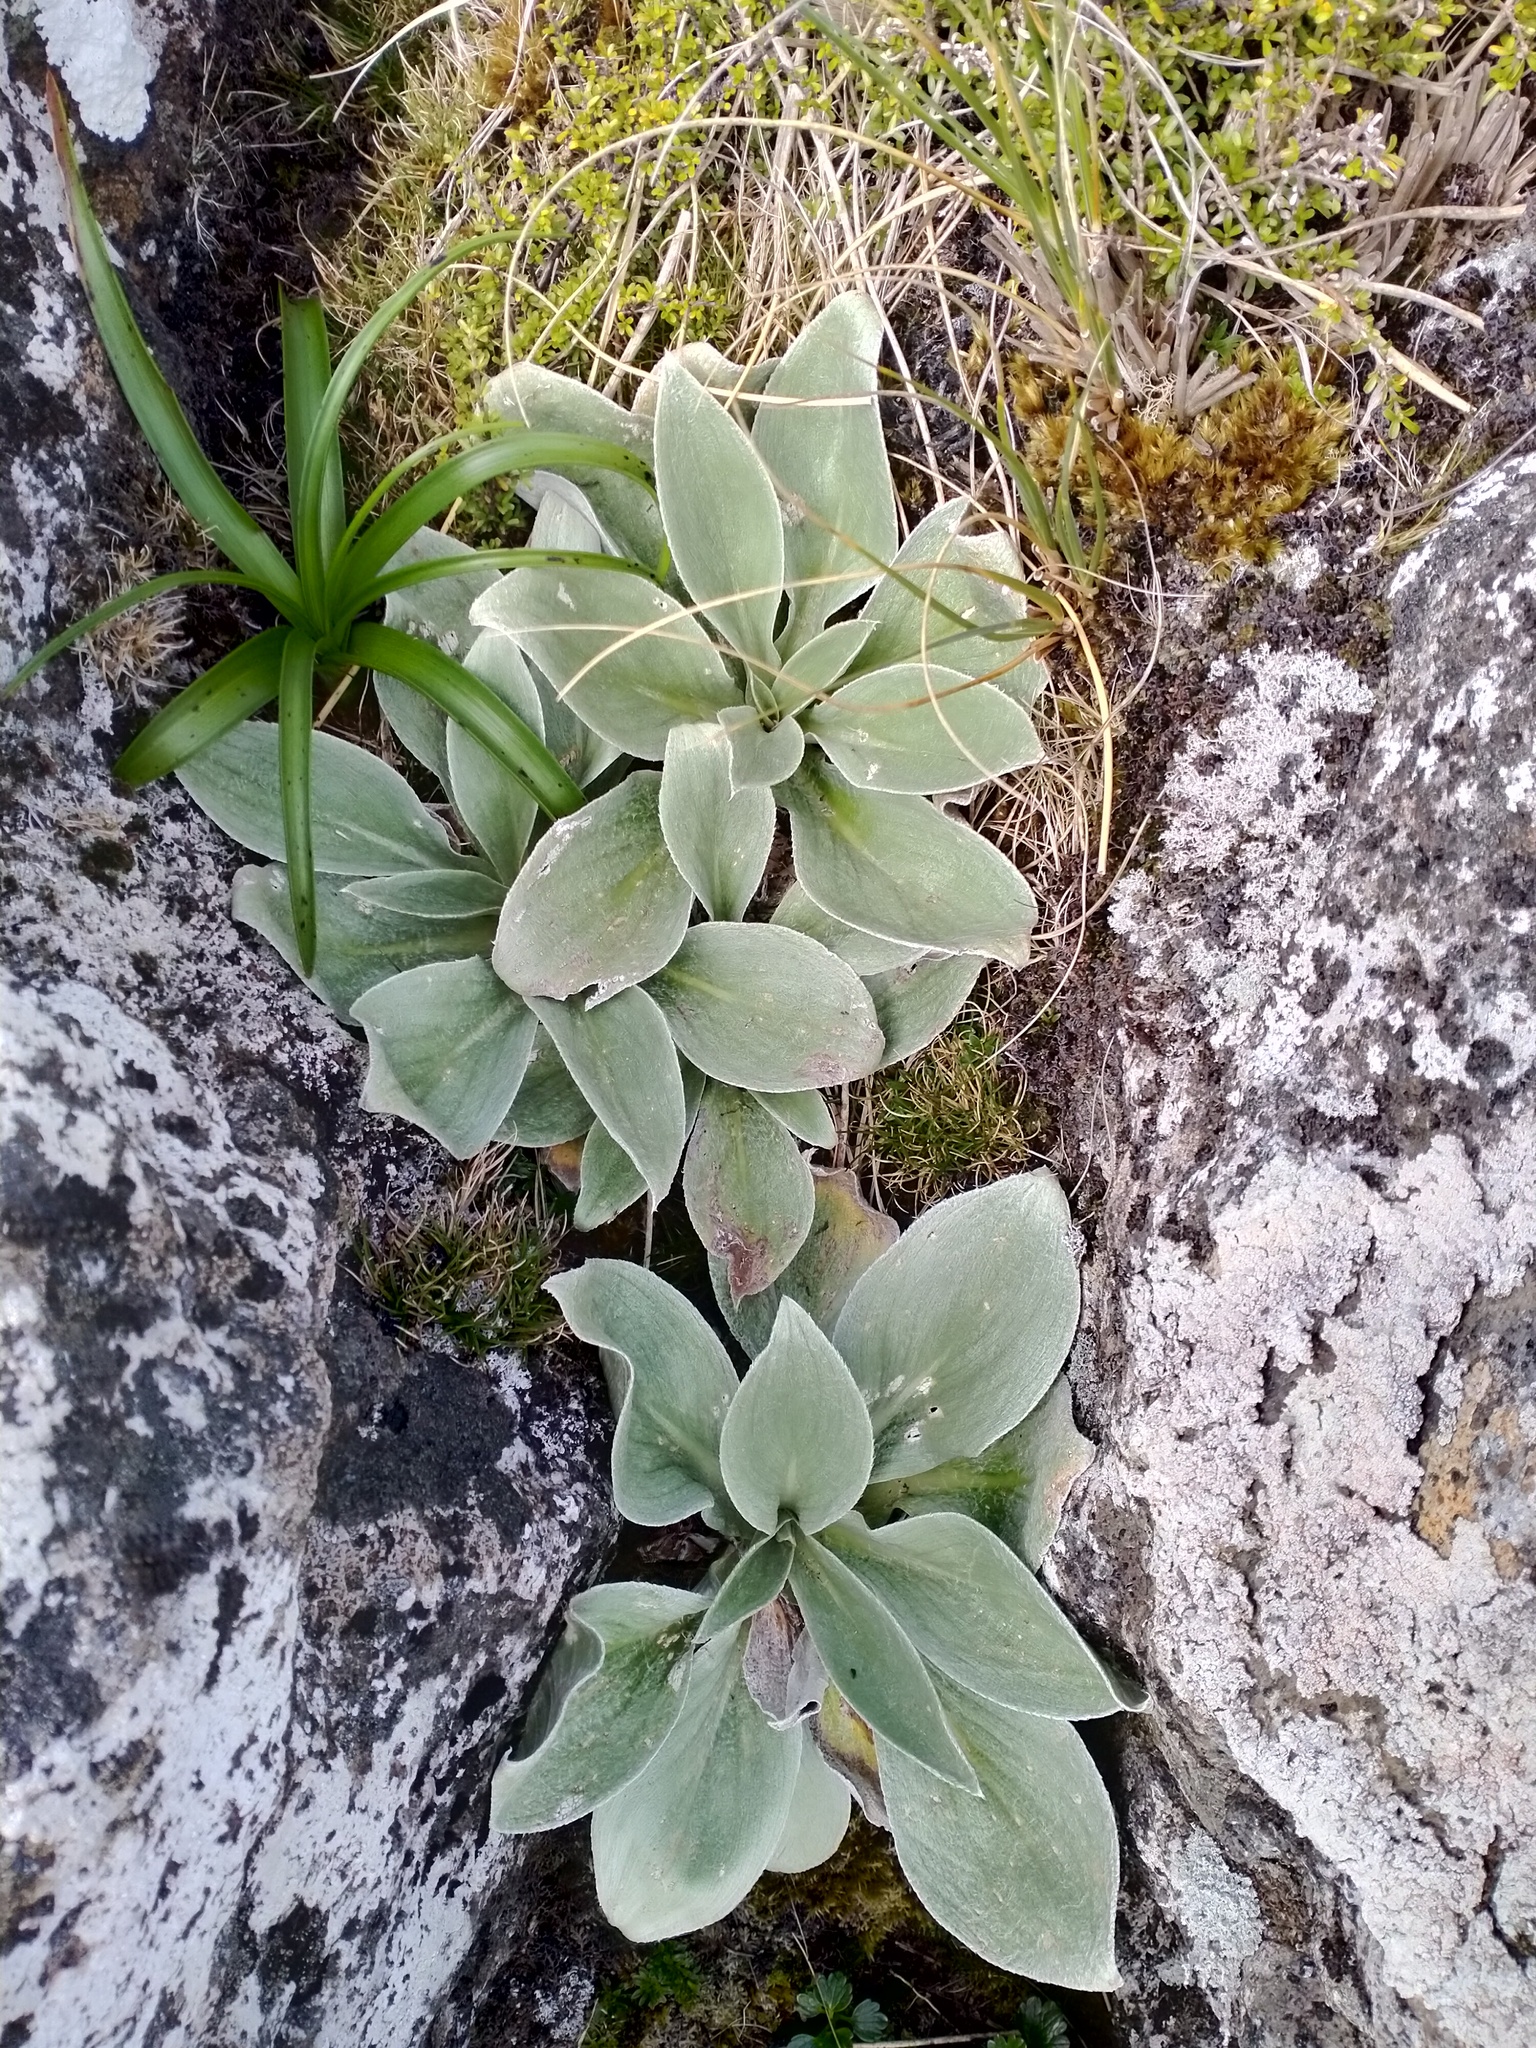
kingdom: Plantae
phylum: Tracheophyta
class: Magnoliopsida
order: Asterales
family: Asteraceae
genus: Pleurophyllum
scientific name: Pleurophyllum hookeri
